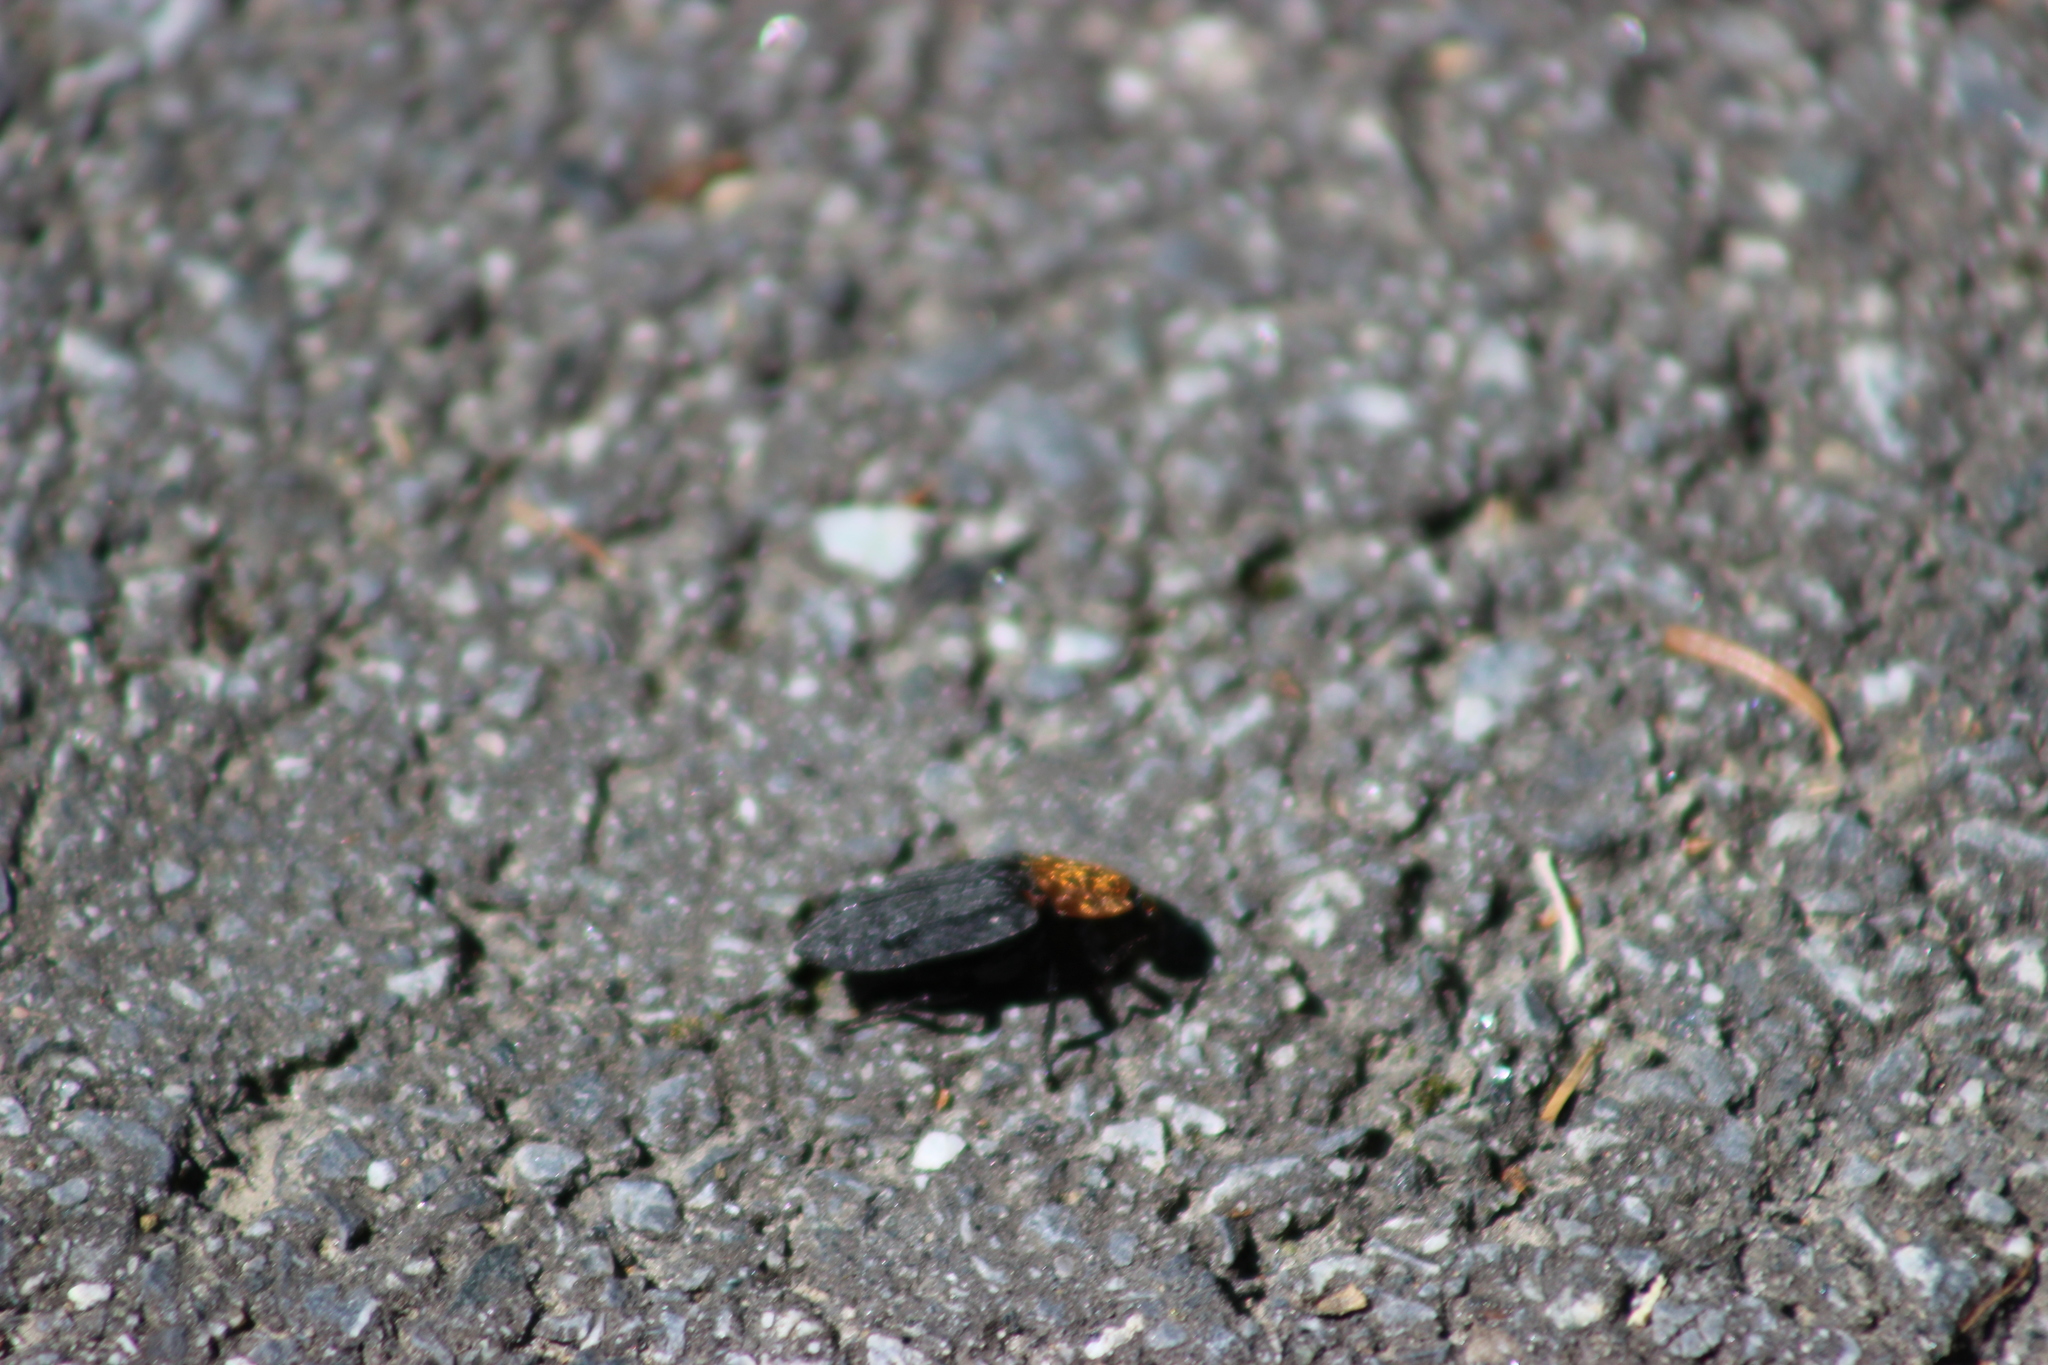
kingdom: Animalia
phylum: Arthropoda
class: Insecta
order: Coleoptera
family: Staphylinidae
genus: Oiceoptoma
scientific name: Oiceoptoma thoracicum
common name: Red-breasted carrion beetle
